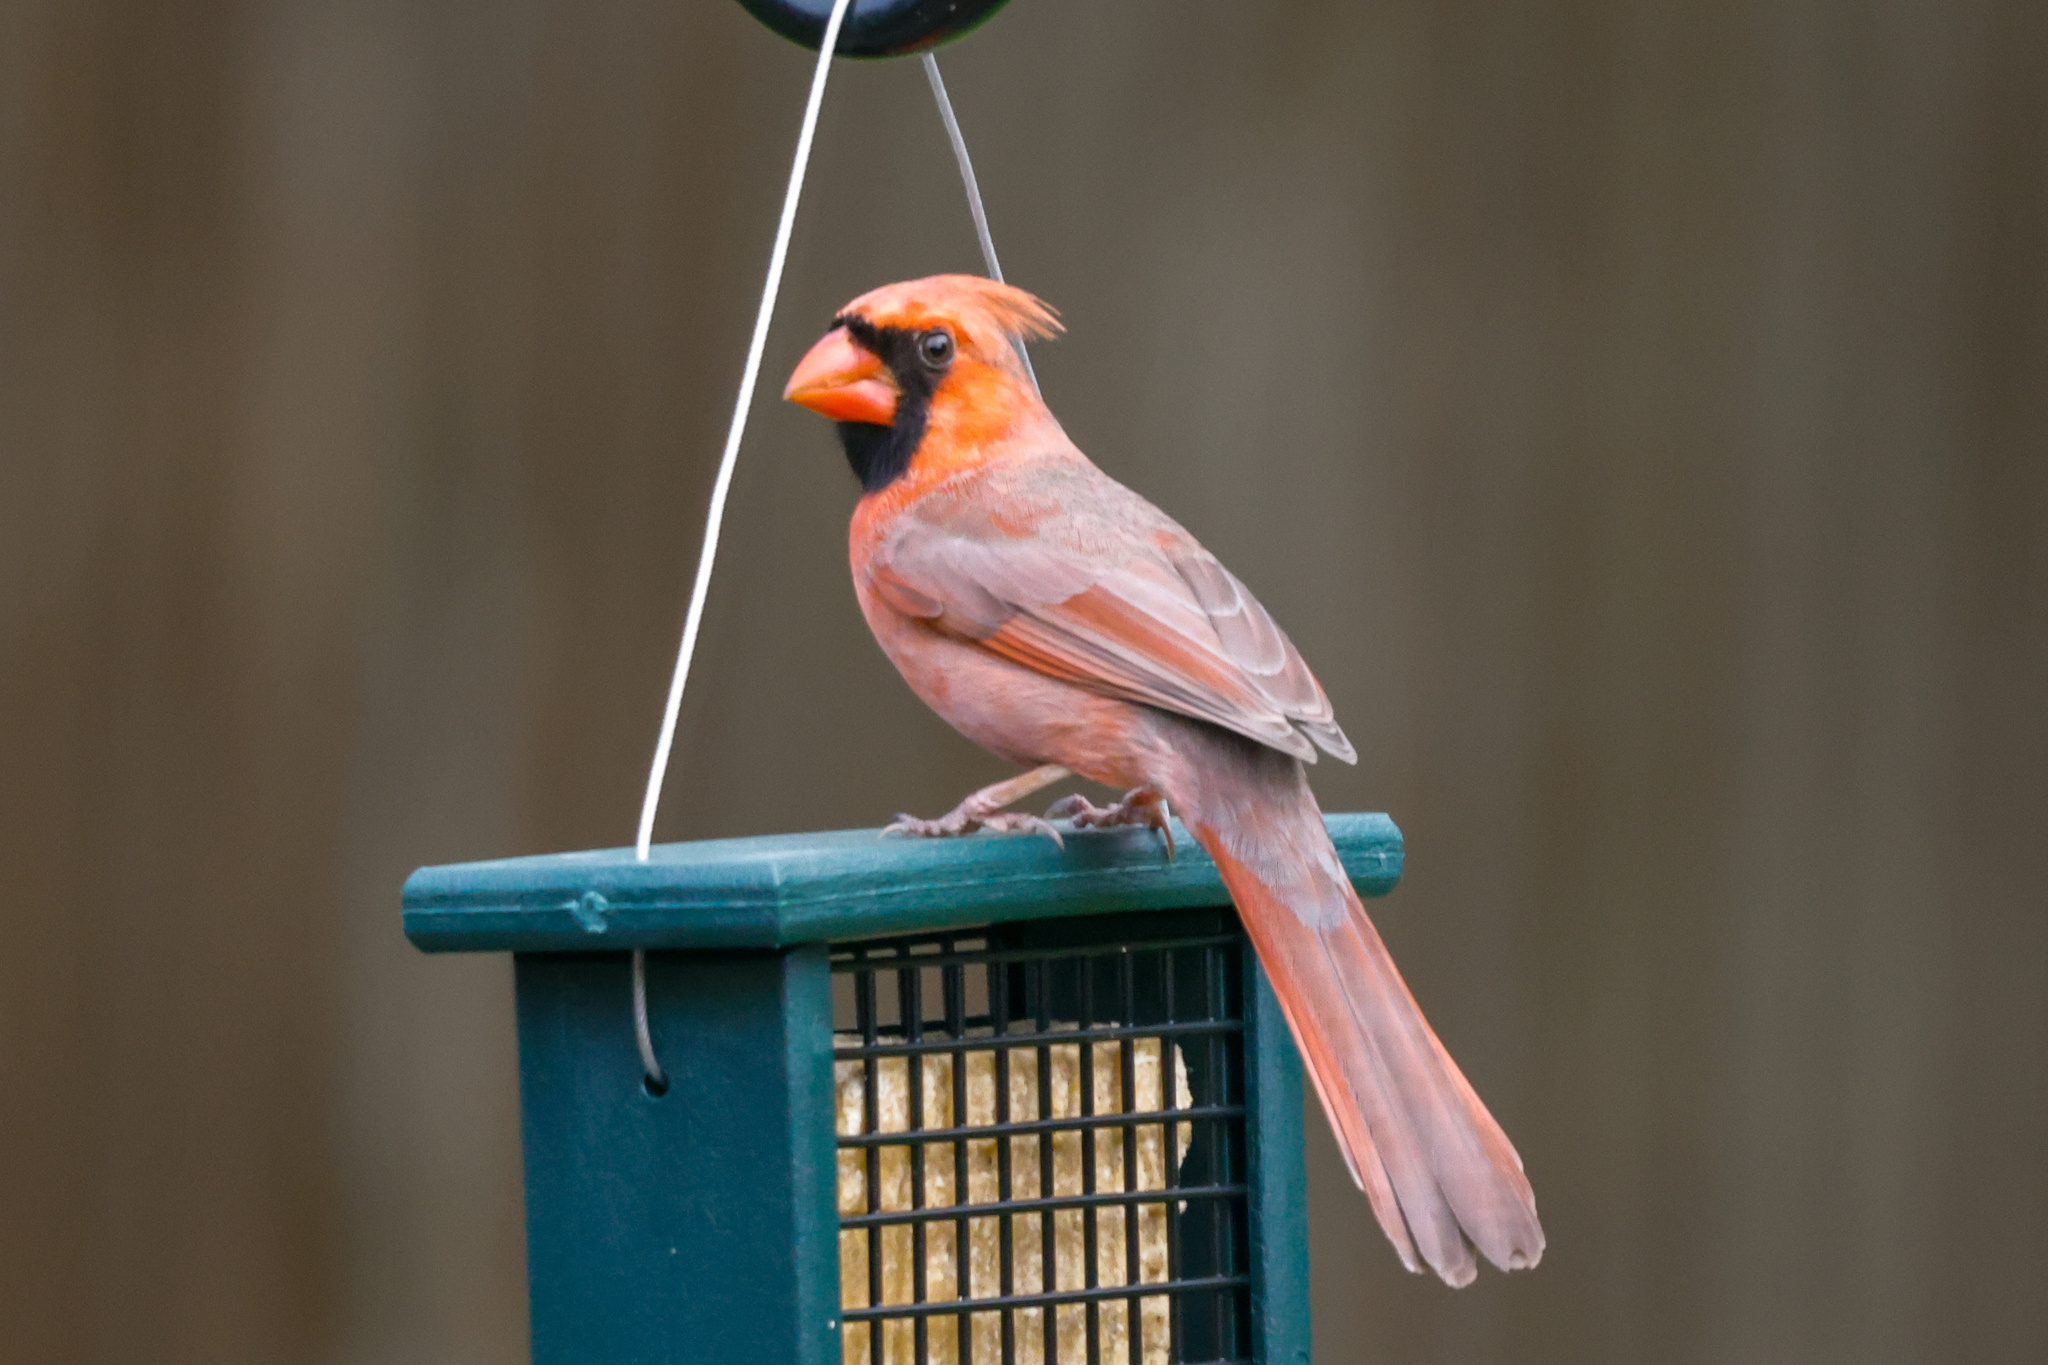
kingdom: Animalia
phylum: Chordata
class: Aves
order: Passeriformes
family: Cardinalidae
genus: Cardinalis
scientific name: Cardinalis cardinalis
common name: Northern cardinal
